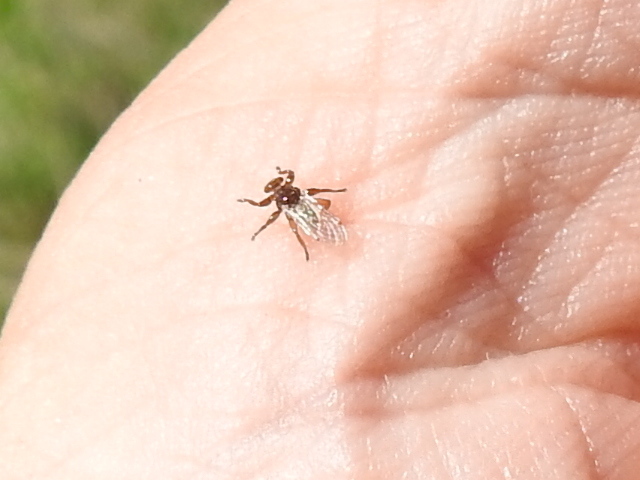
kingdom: Animalia
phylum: Arthropoda
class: Insecta
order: Diptera
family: Hippoboscidae
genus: Lipoptena
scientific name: Lipoptena mazamae
